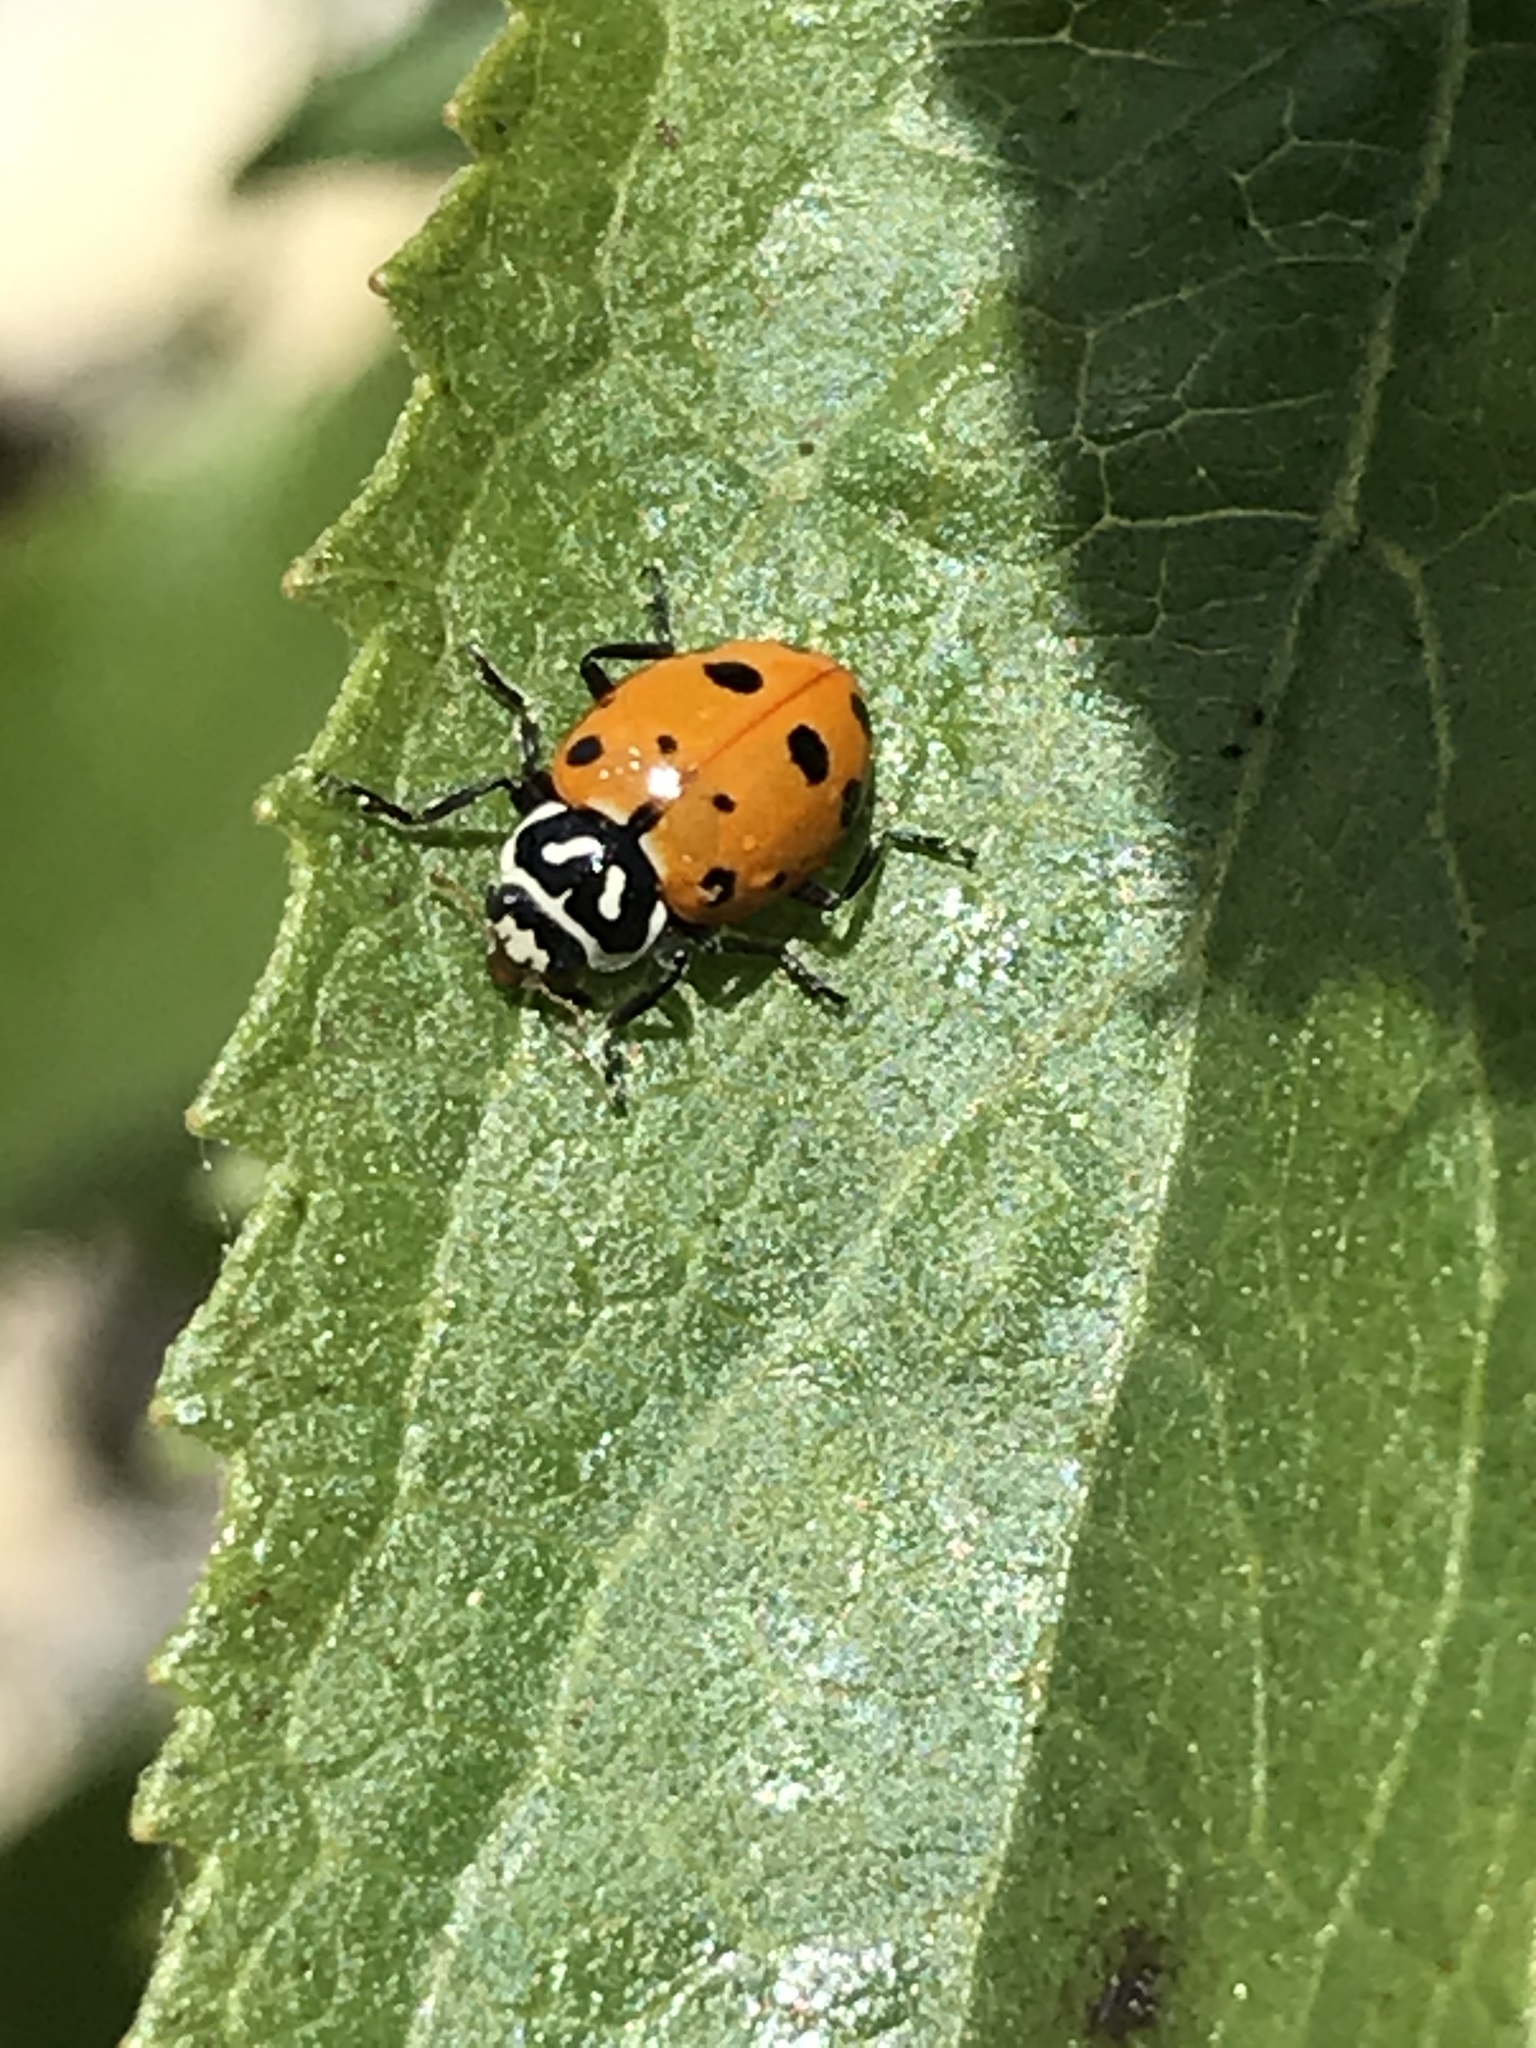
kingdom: Animalia
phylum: Arthropoda
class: Insecta
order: Coleoptera
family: Coccinellidae
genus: Hippodamia
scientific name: Hippodamia convergens
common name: Convergent lady beetle
